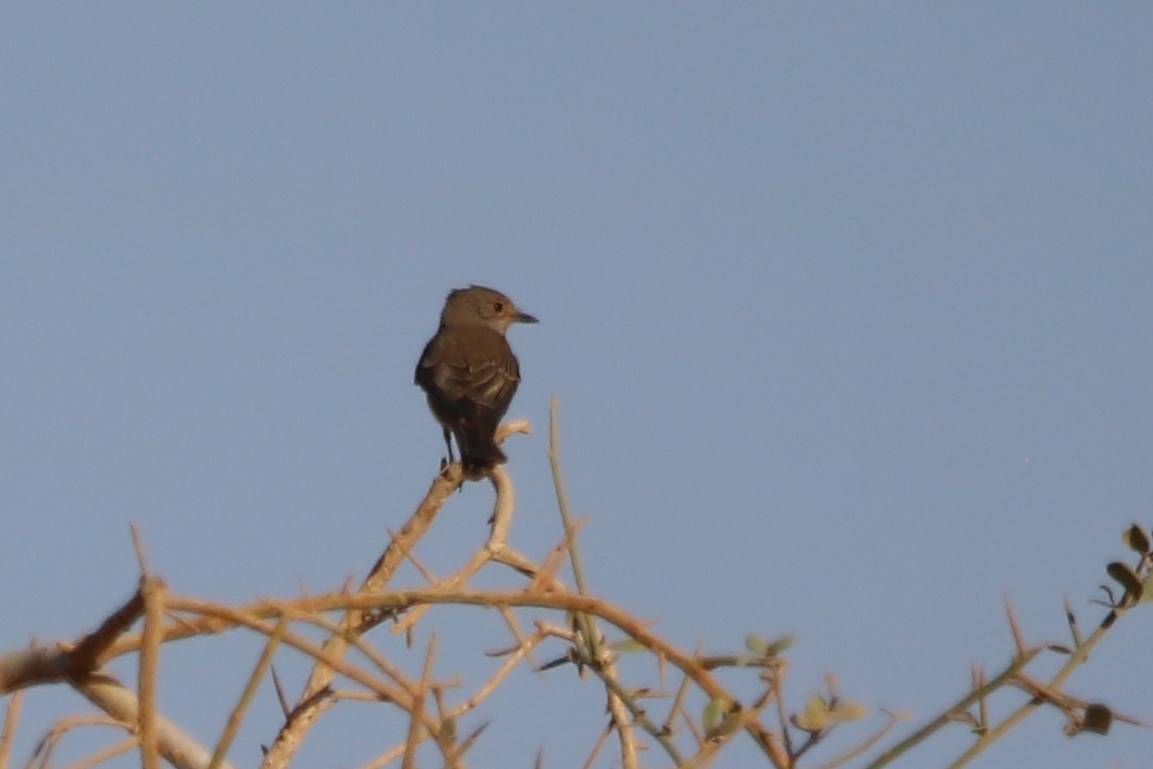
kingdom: Animalia
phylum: Chordata
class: Aves
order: Passeriformes
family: Muscicapidae
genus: Muscicapa
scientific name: Muscicapa striata
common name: Spotted flycatcher
